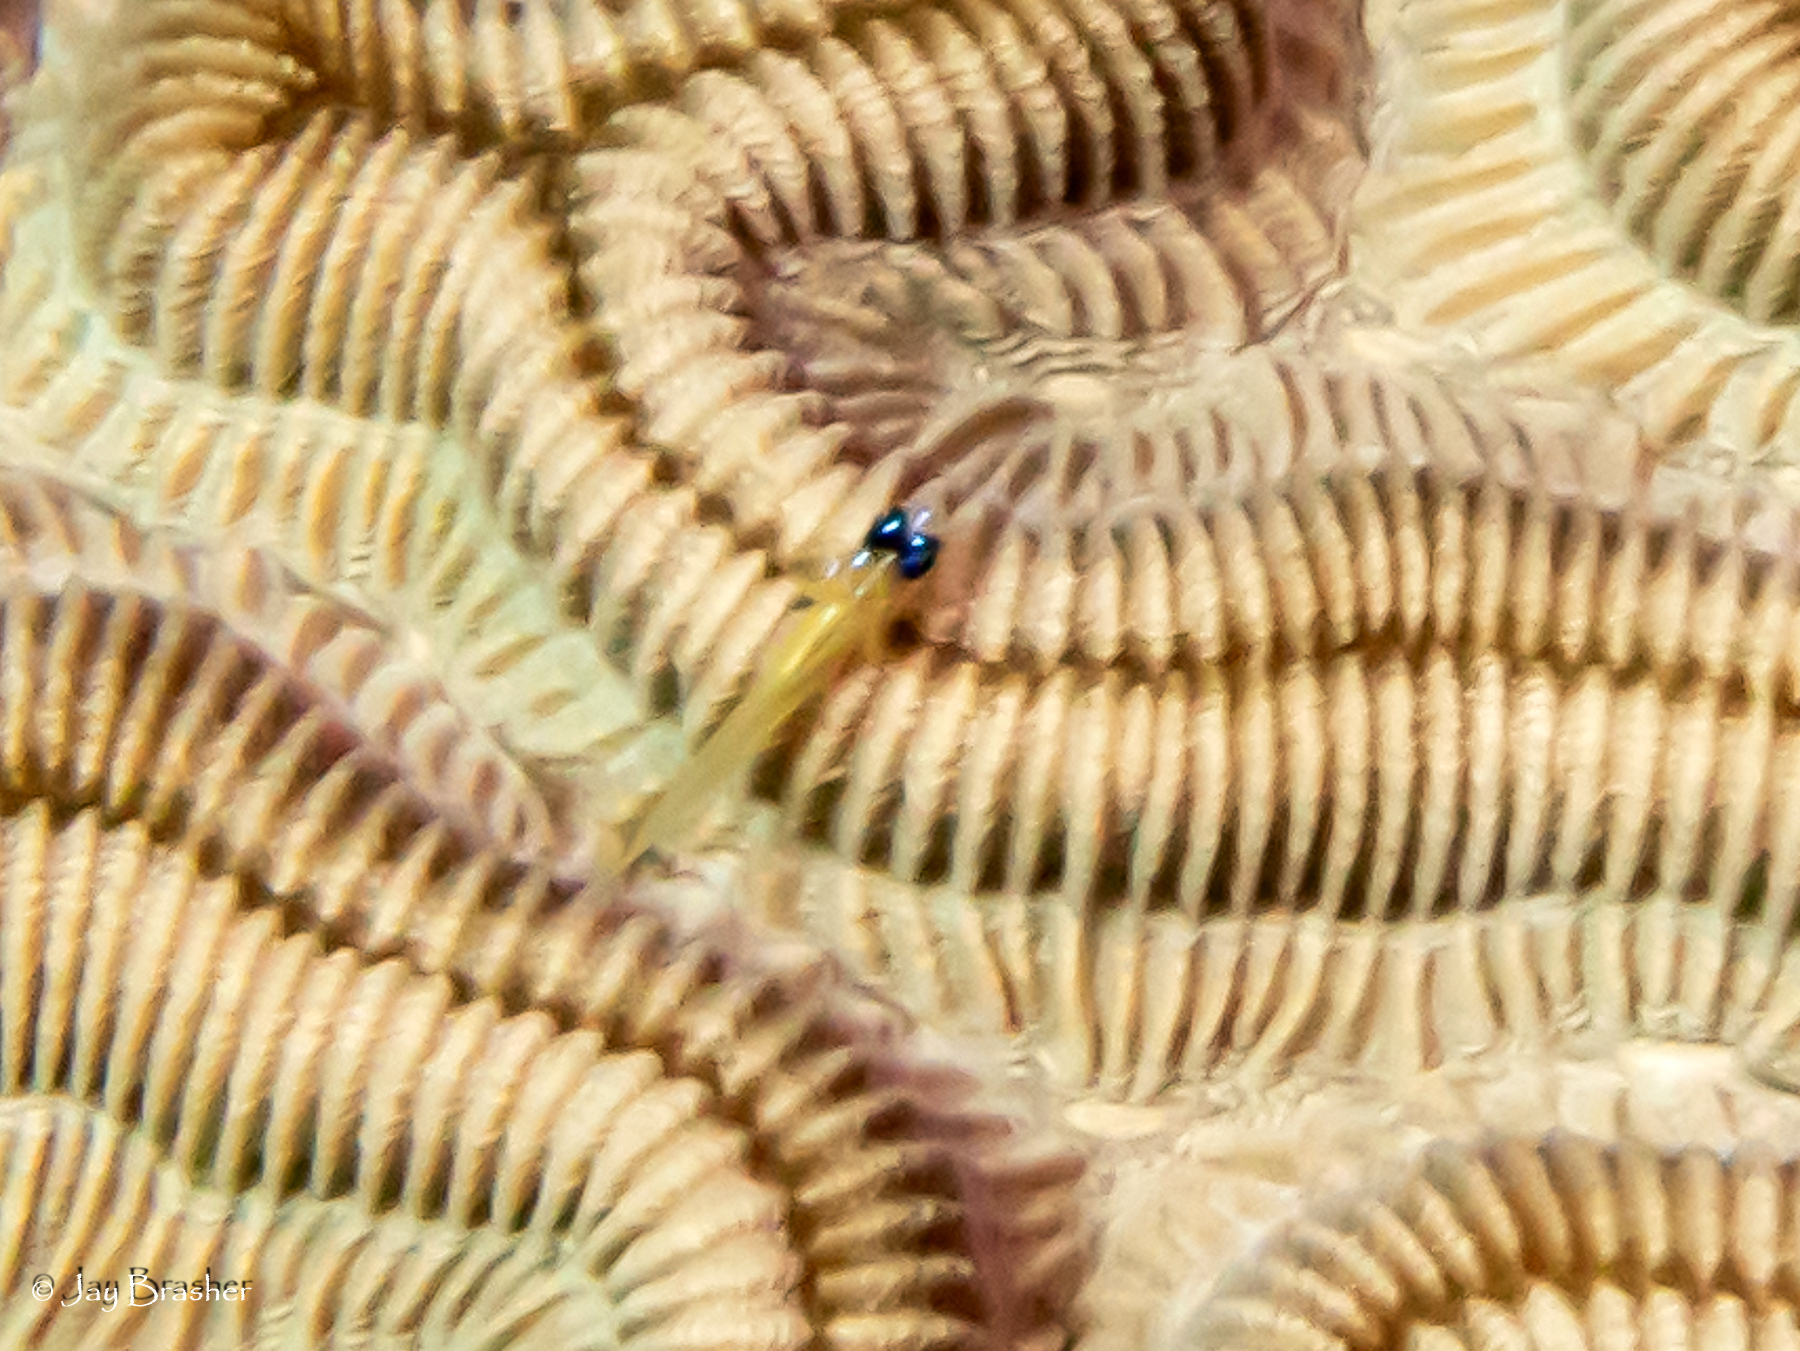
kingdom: Animalia
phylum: Chordata
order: Perciformes
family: Gobiidae
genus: Coryphopterus
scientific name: Coryphopterus lipernes
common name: Peppermint goby
